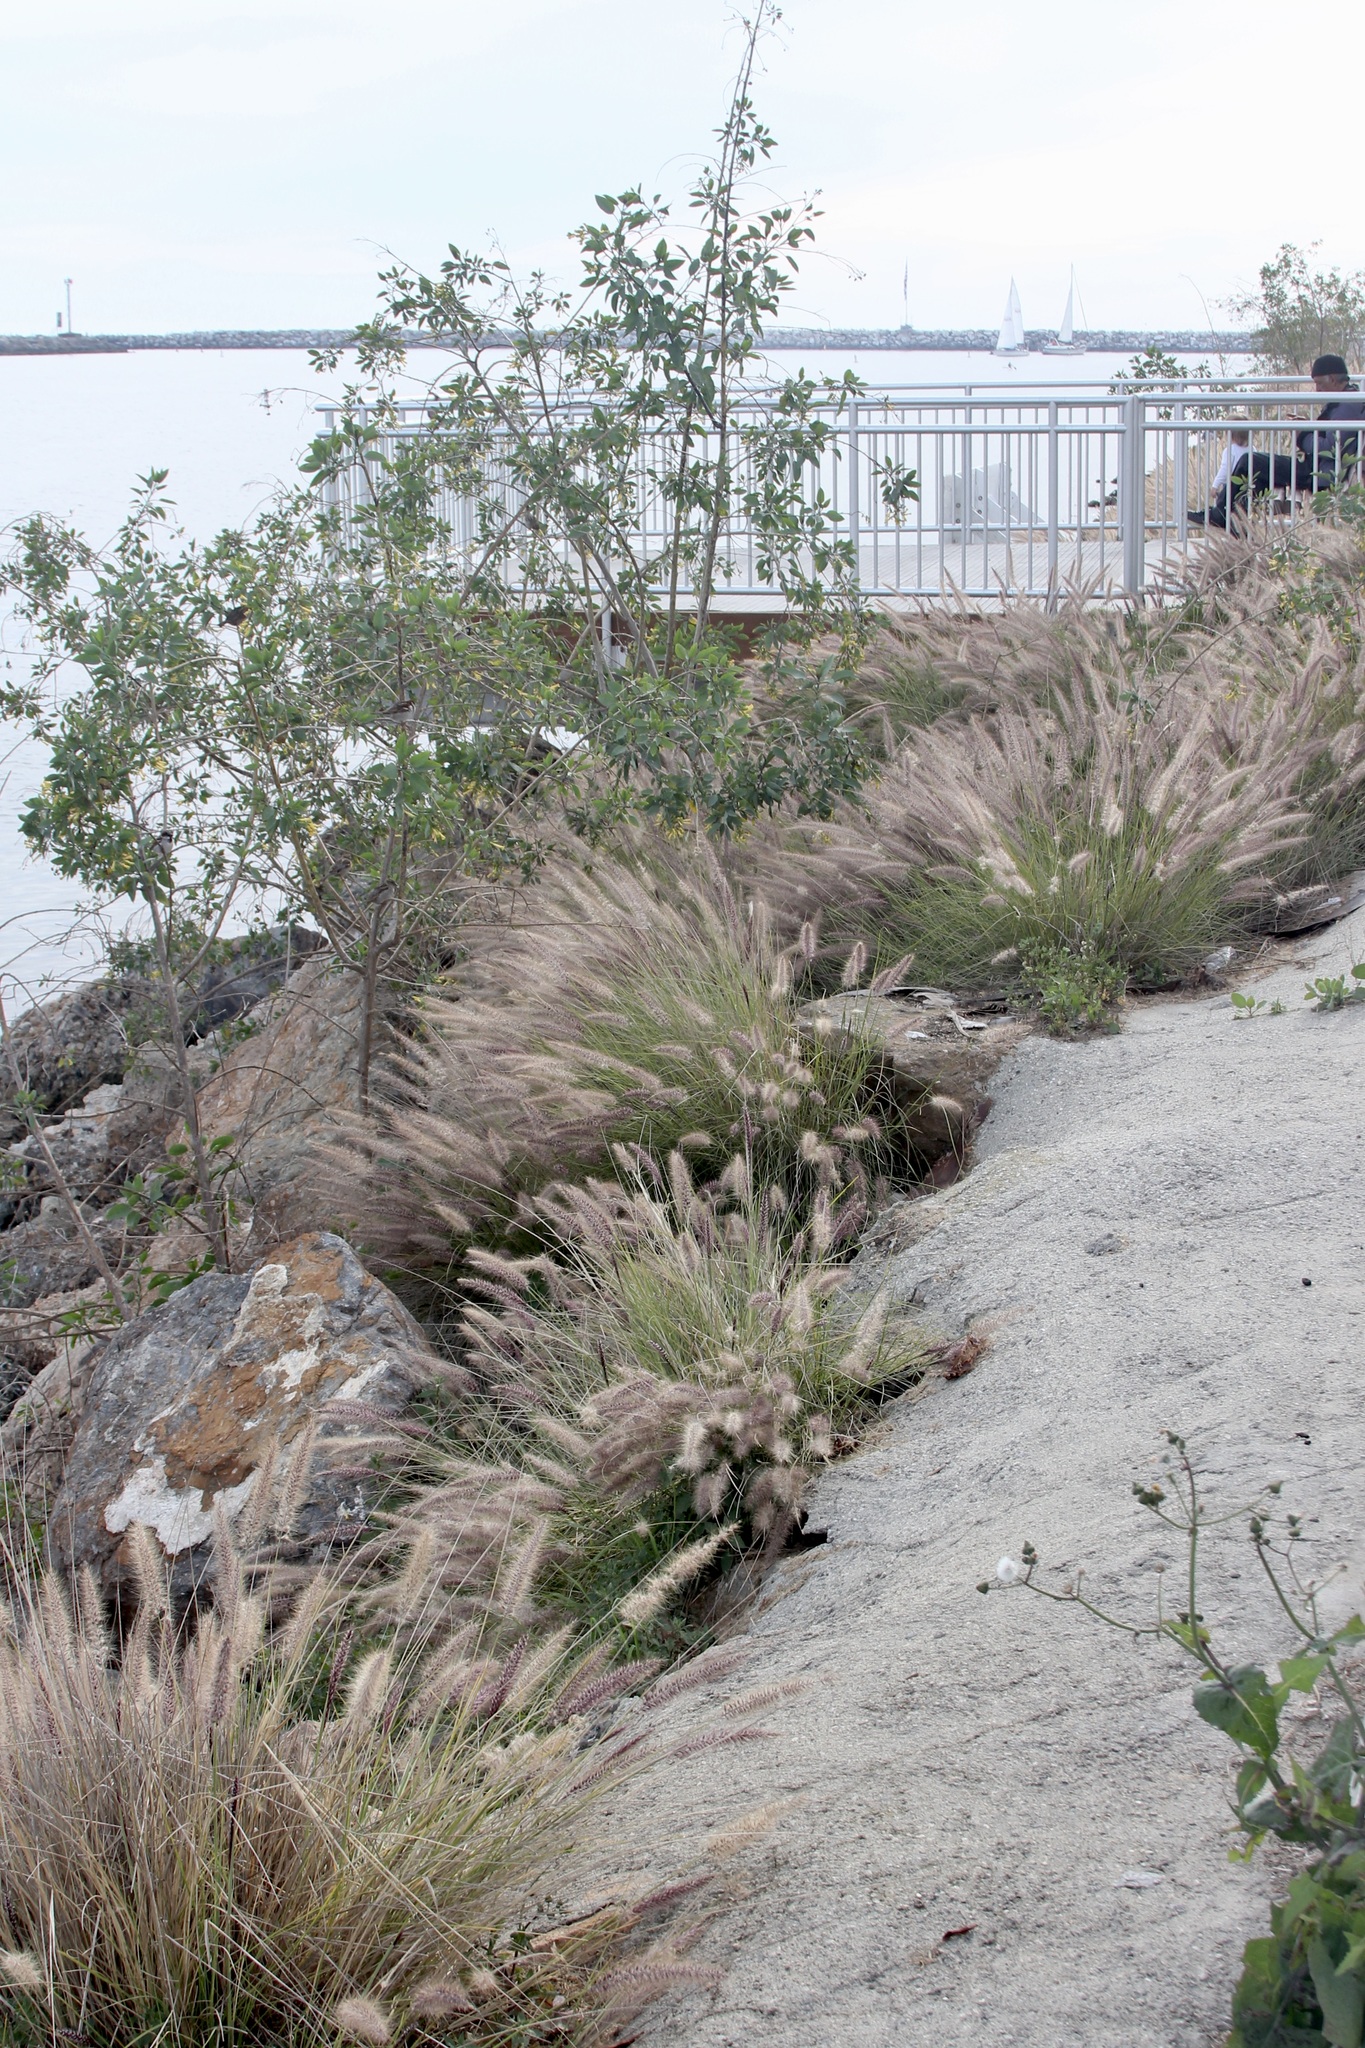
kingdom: Plantae
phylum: Tracheophyta
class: Liliopsida
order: Poales
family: Poaceae
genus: Cenchrus
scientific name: Cenchrus setaceus
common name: Crimson fountaingrass
